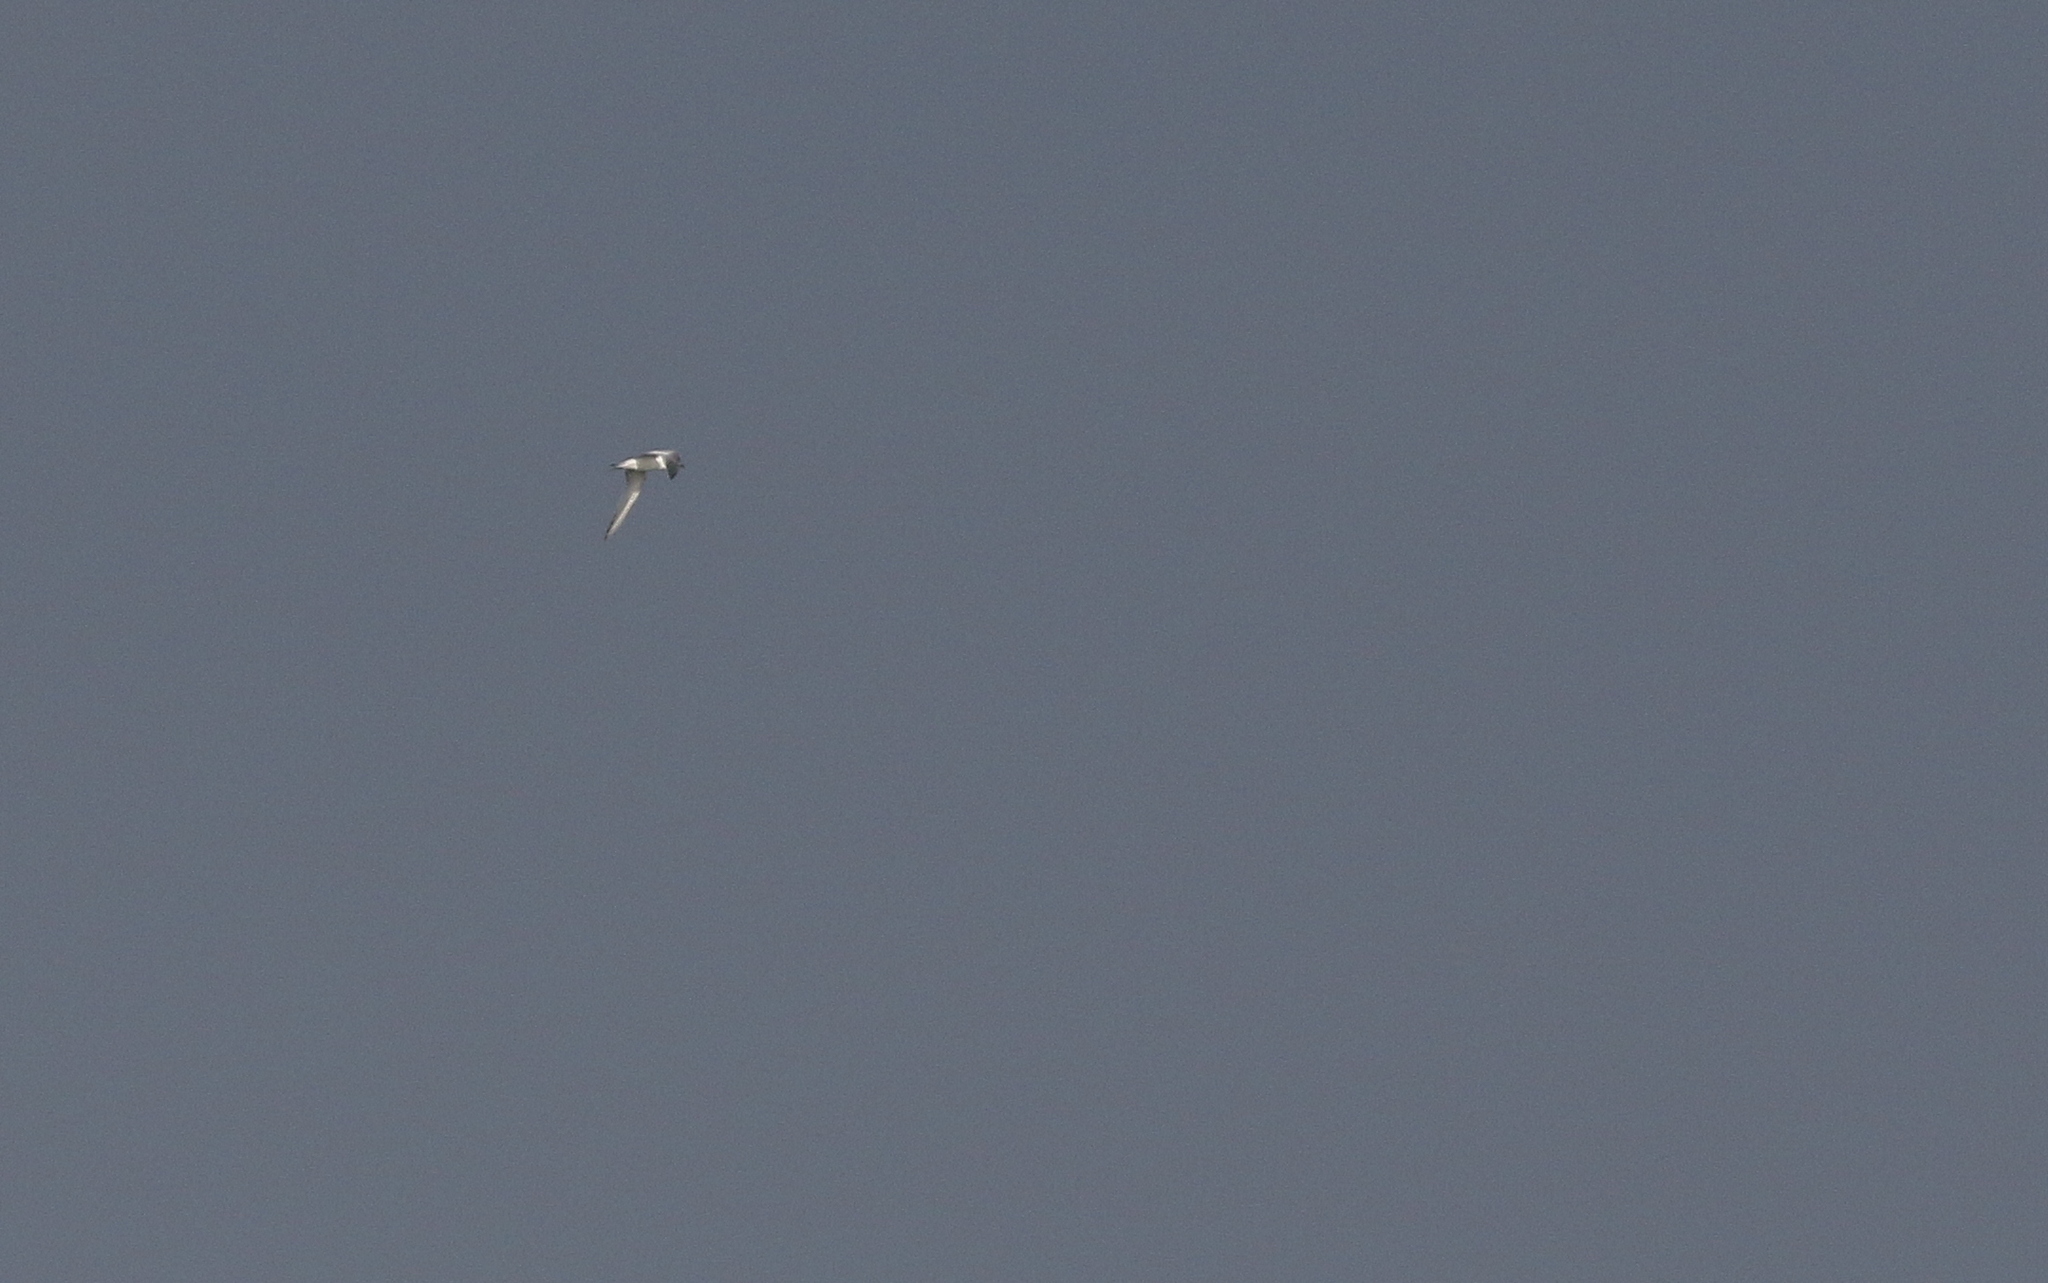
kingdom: Animalia
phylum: Chordata
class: Aves
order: Charadriiformes
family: Laridae
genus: Thalasseus
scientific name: Thalasseus sandvicensis
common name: Sandwich tern
